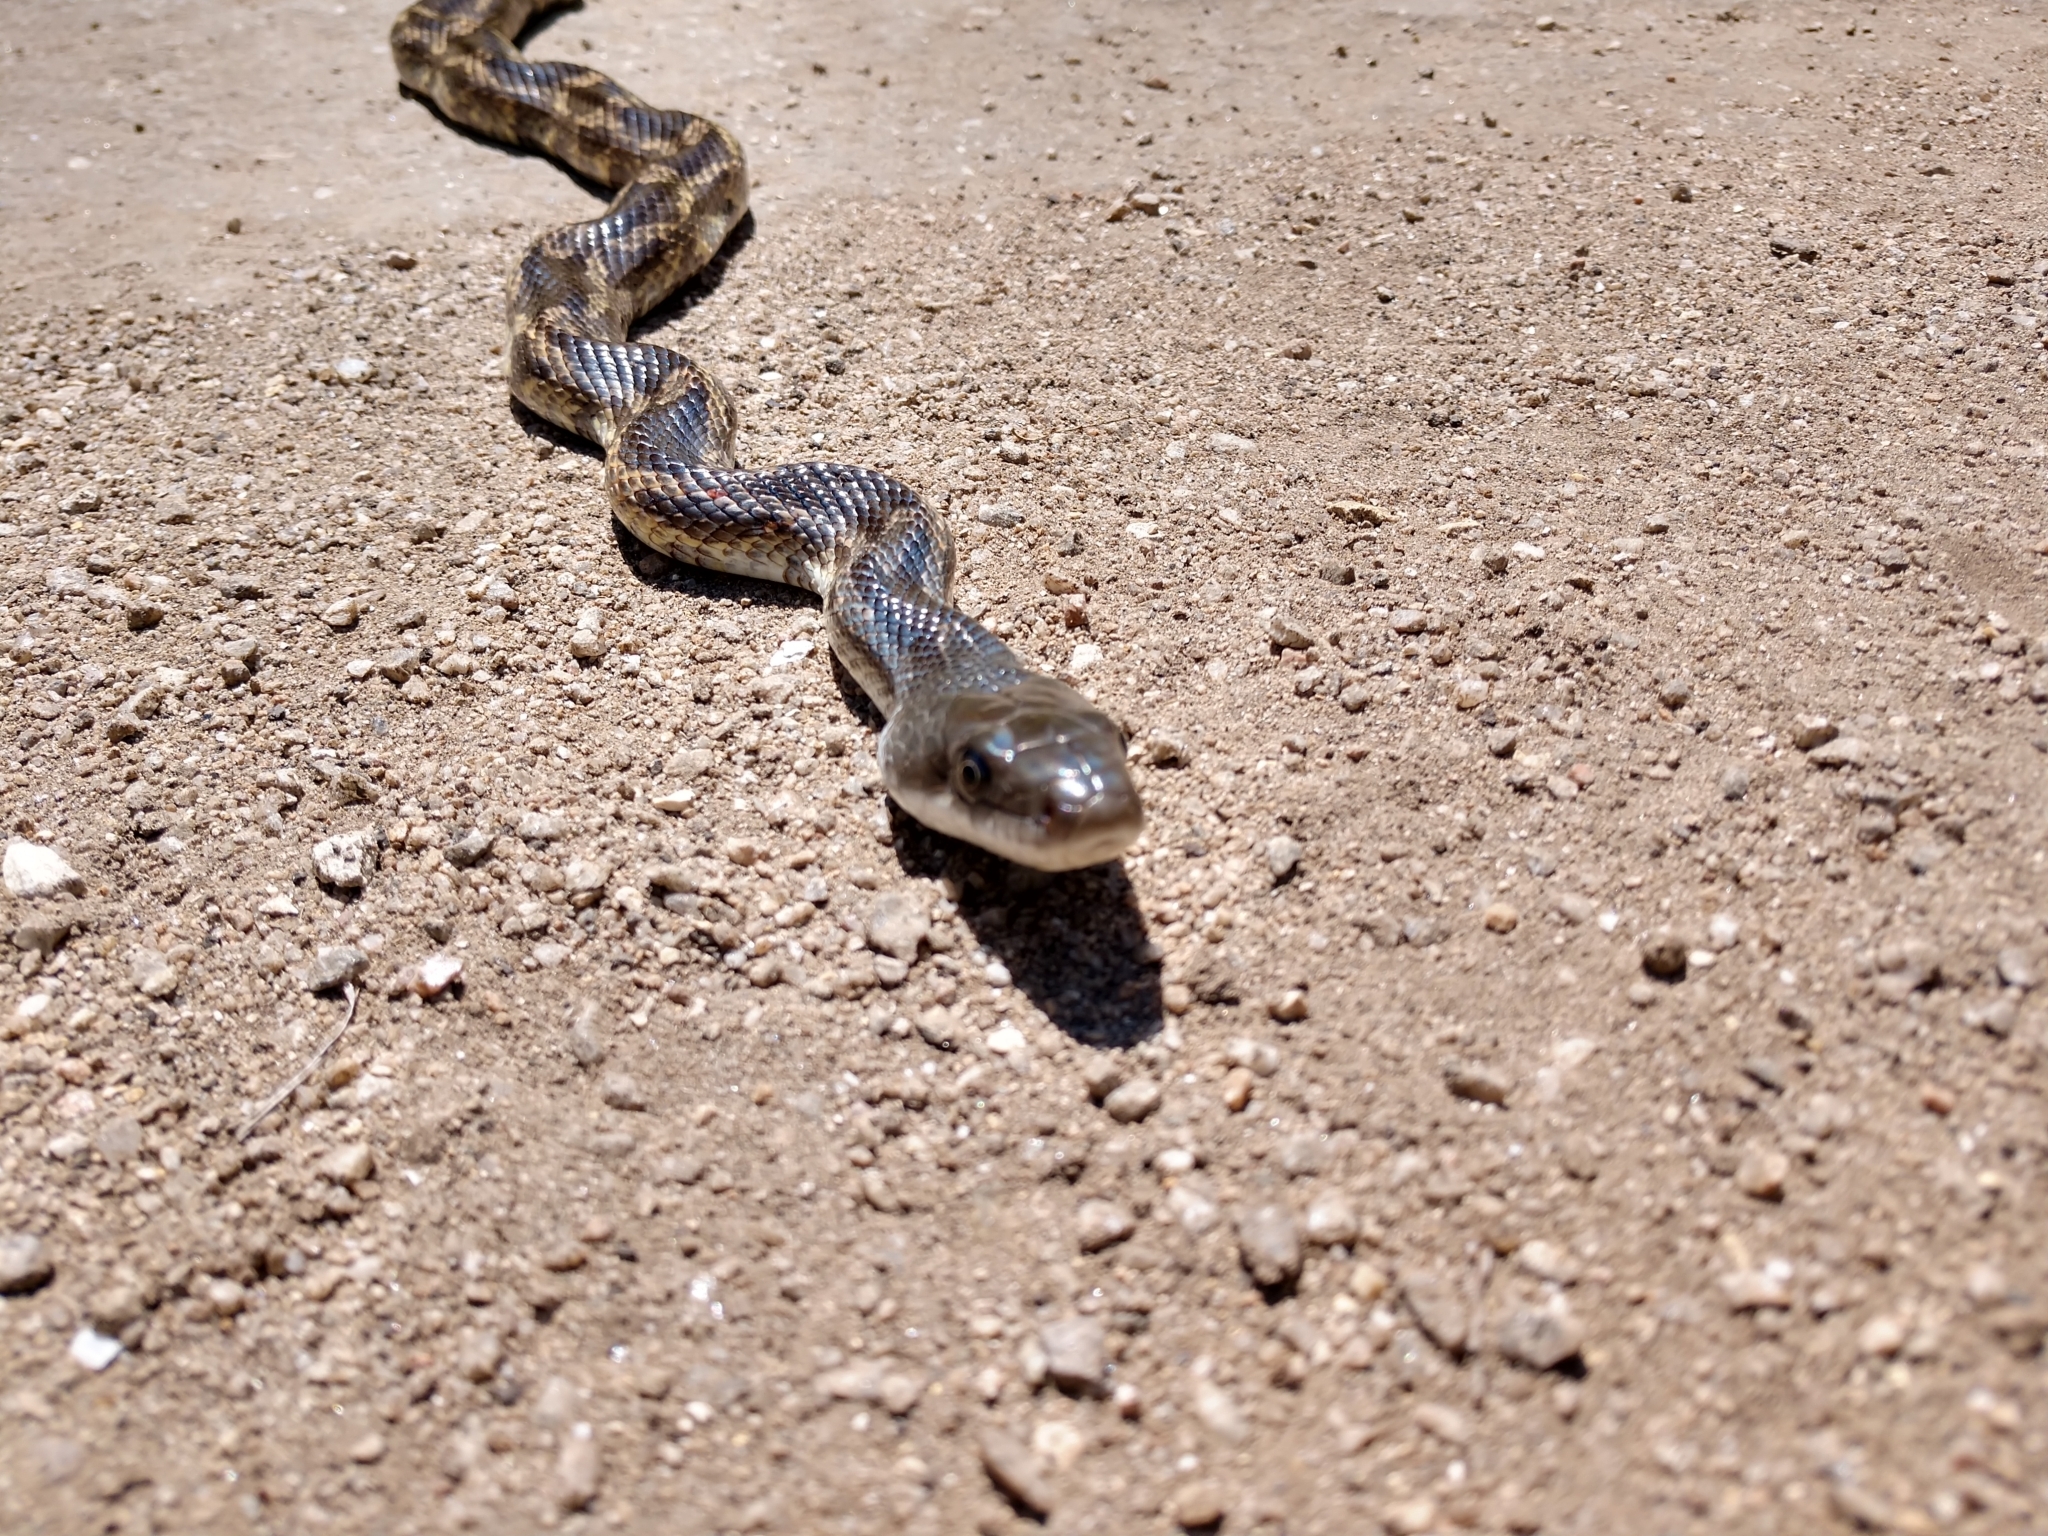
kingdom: Animalia
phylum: Chordata
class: Squamata
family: Colubridae
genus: Pantherophis
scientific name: Pantherophis obsoletus
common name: Black rat snake
